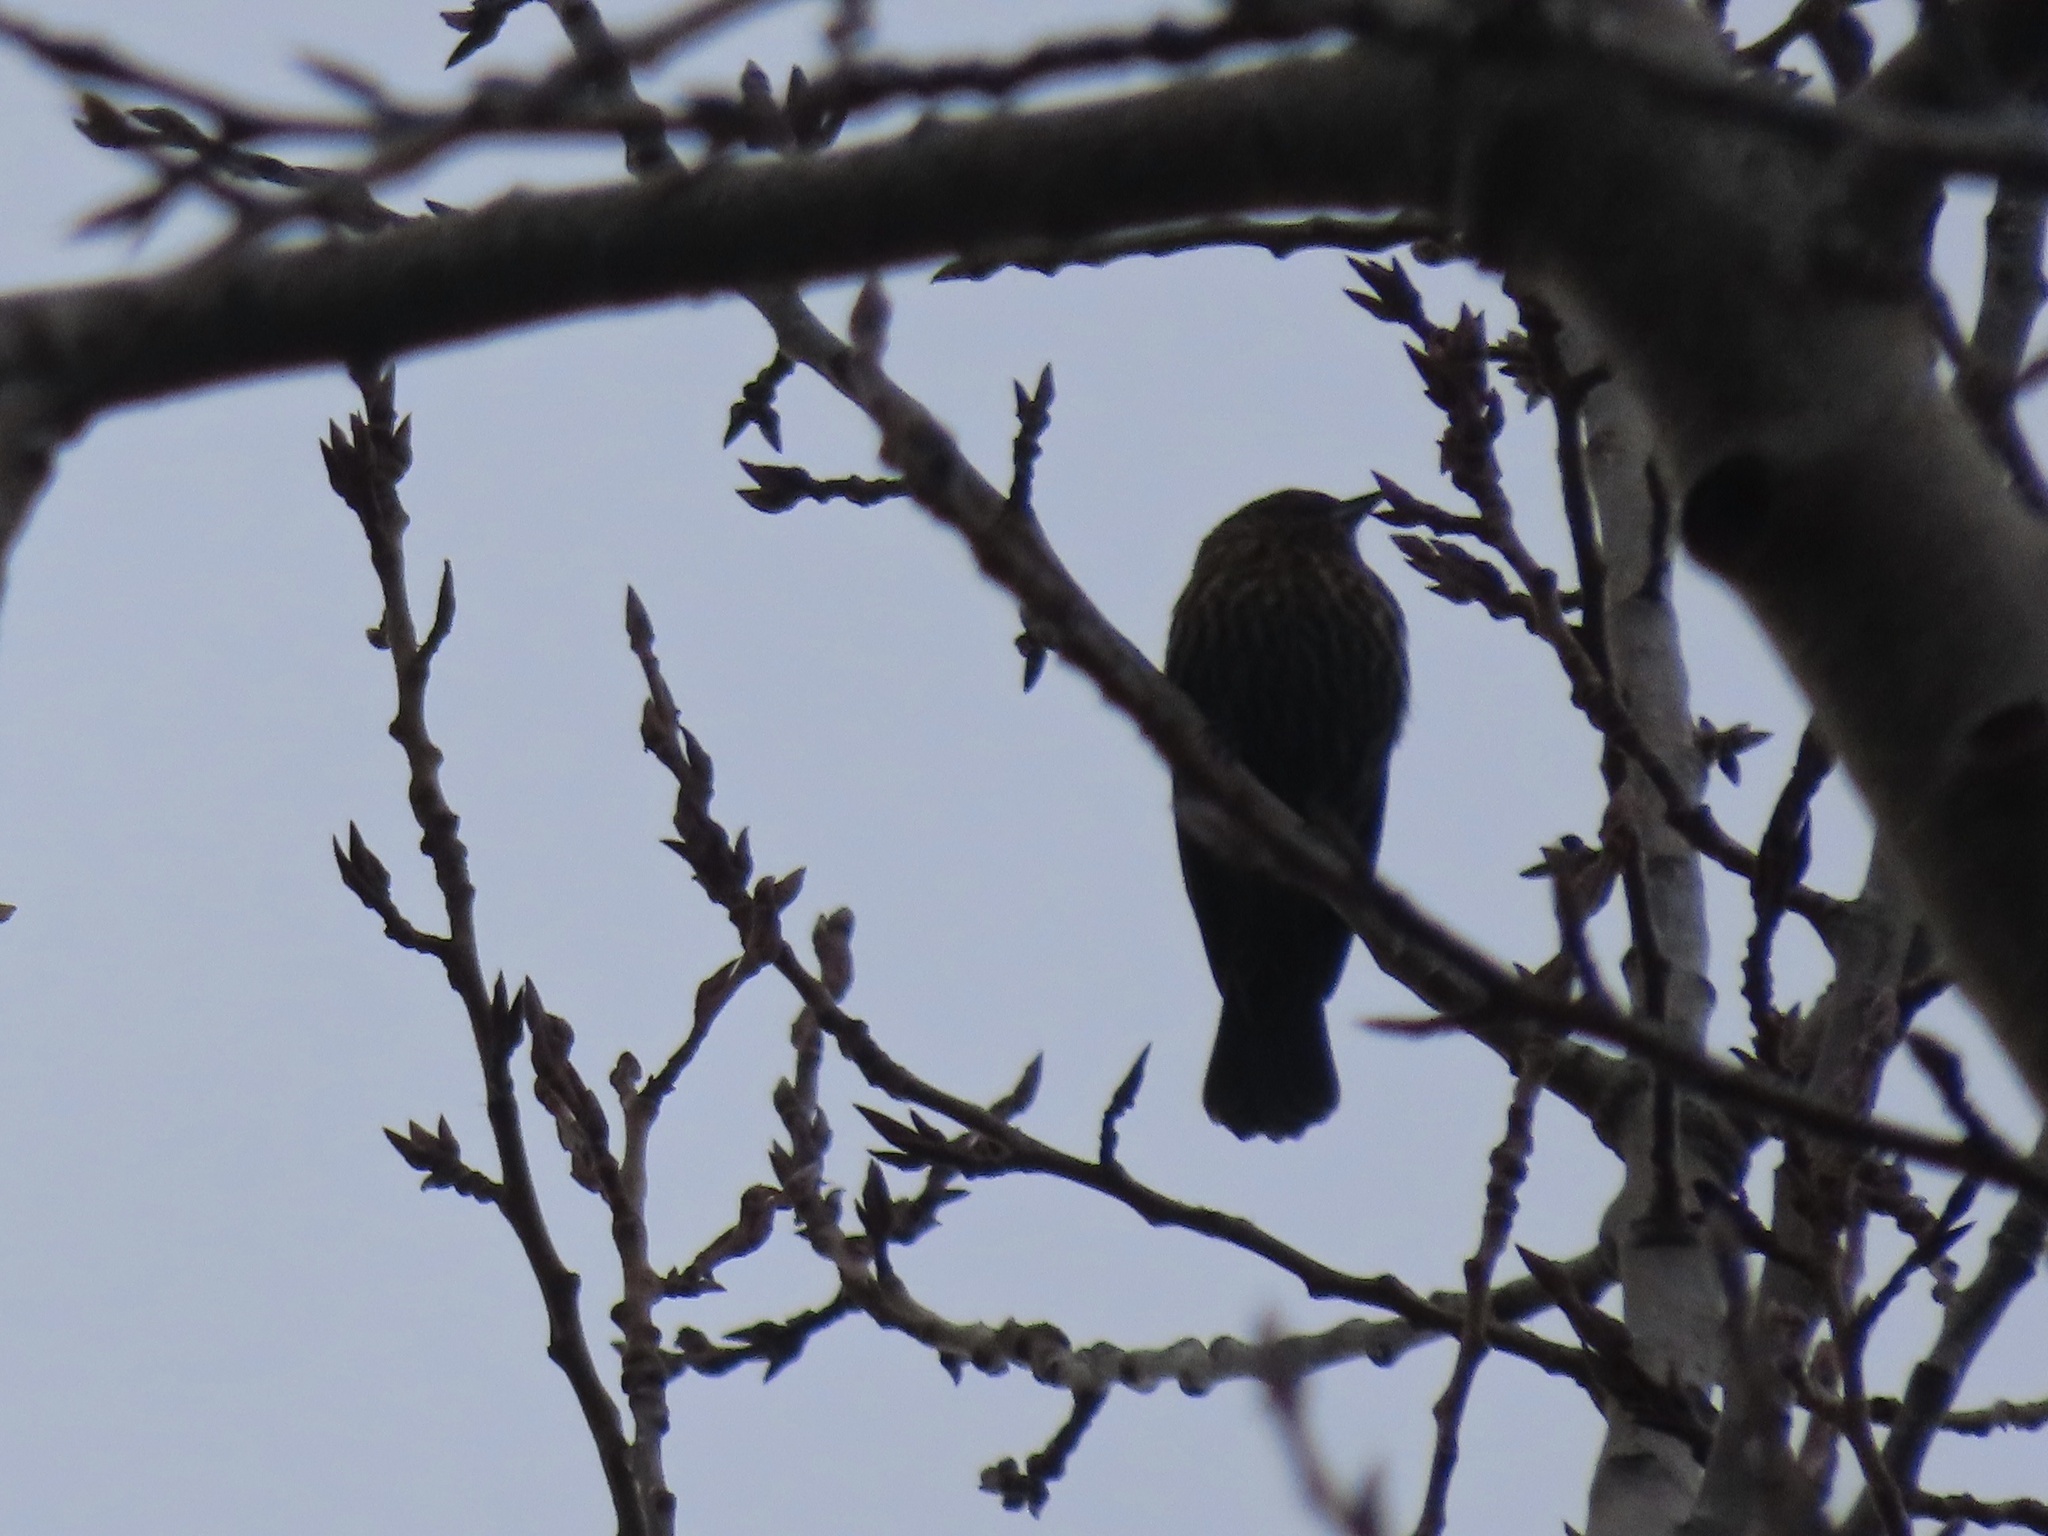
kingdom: Animalia
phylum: Chordata
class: Aves
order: Passeriformes
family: Icteridae
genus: Agelaius
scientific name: Agelaius phoeniceus
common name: Red-winged blackbird
